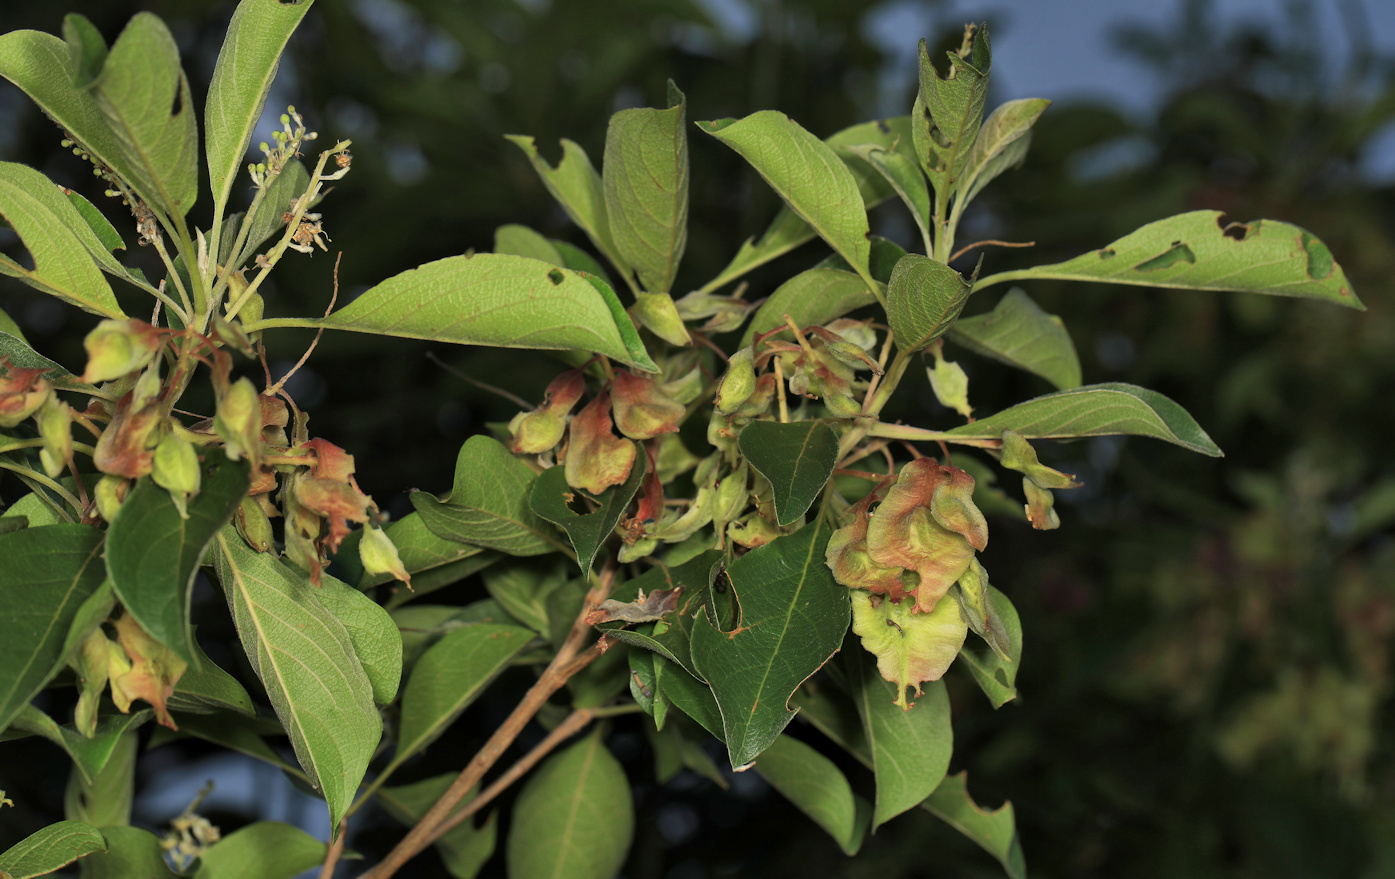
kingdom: Plantae
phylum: Tracheophyta
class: Magnoliopsida
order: Myrtales
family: Combretaceae
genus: Terminalia
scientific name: Terminalia phanerophlebia
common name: Lebombo cluster-leaf
